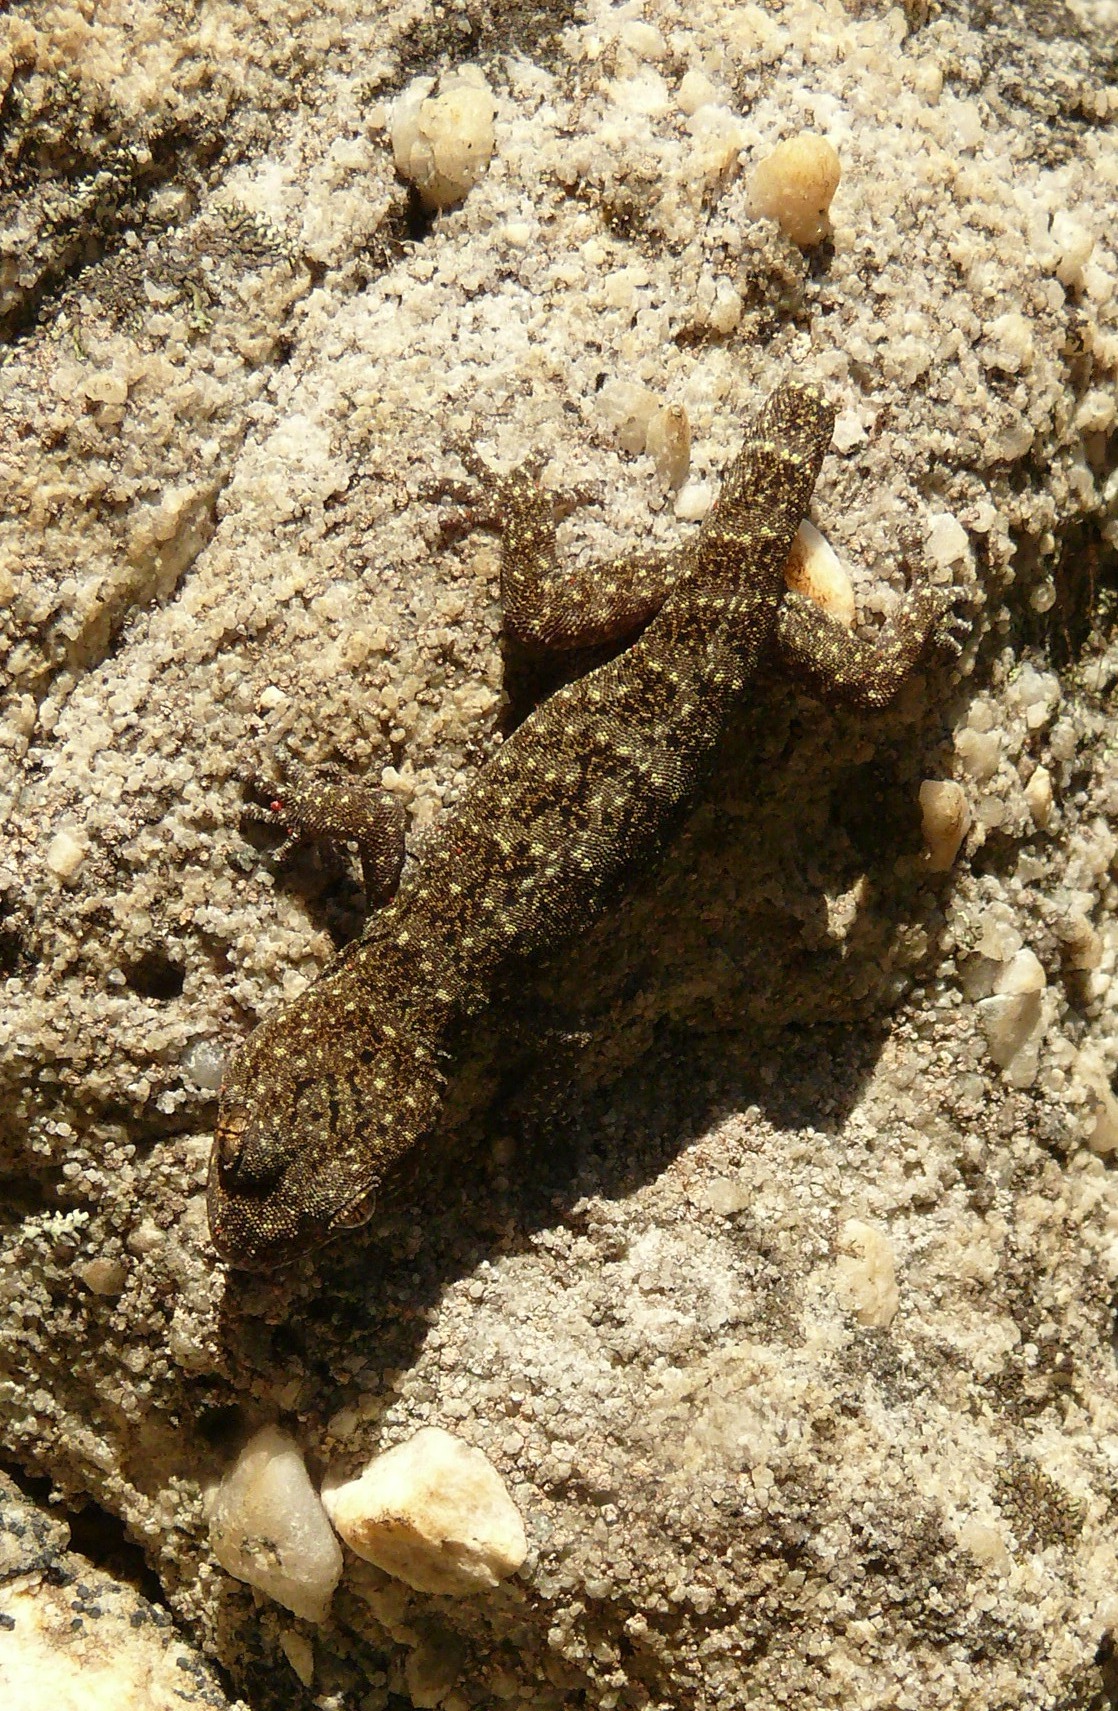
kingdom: Animalia
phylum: Chordata
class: Squamata
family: Gekkonidae
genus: Goggia
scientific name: Goggia microlepidota
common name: Small-scaled leaf-toed lecko
